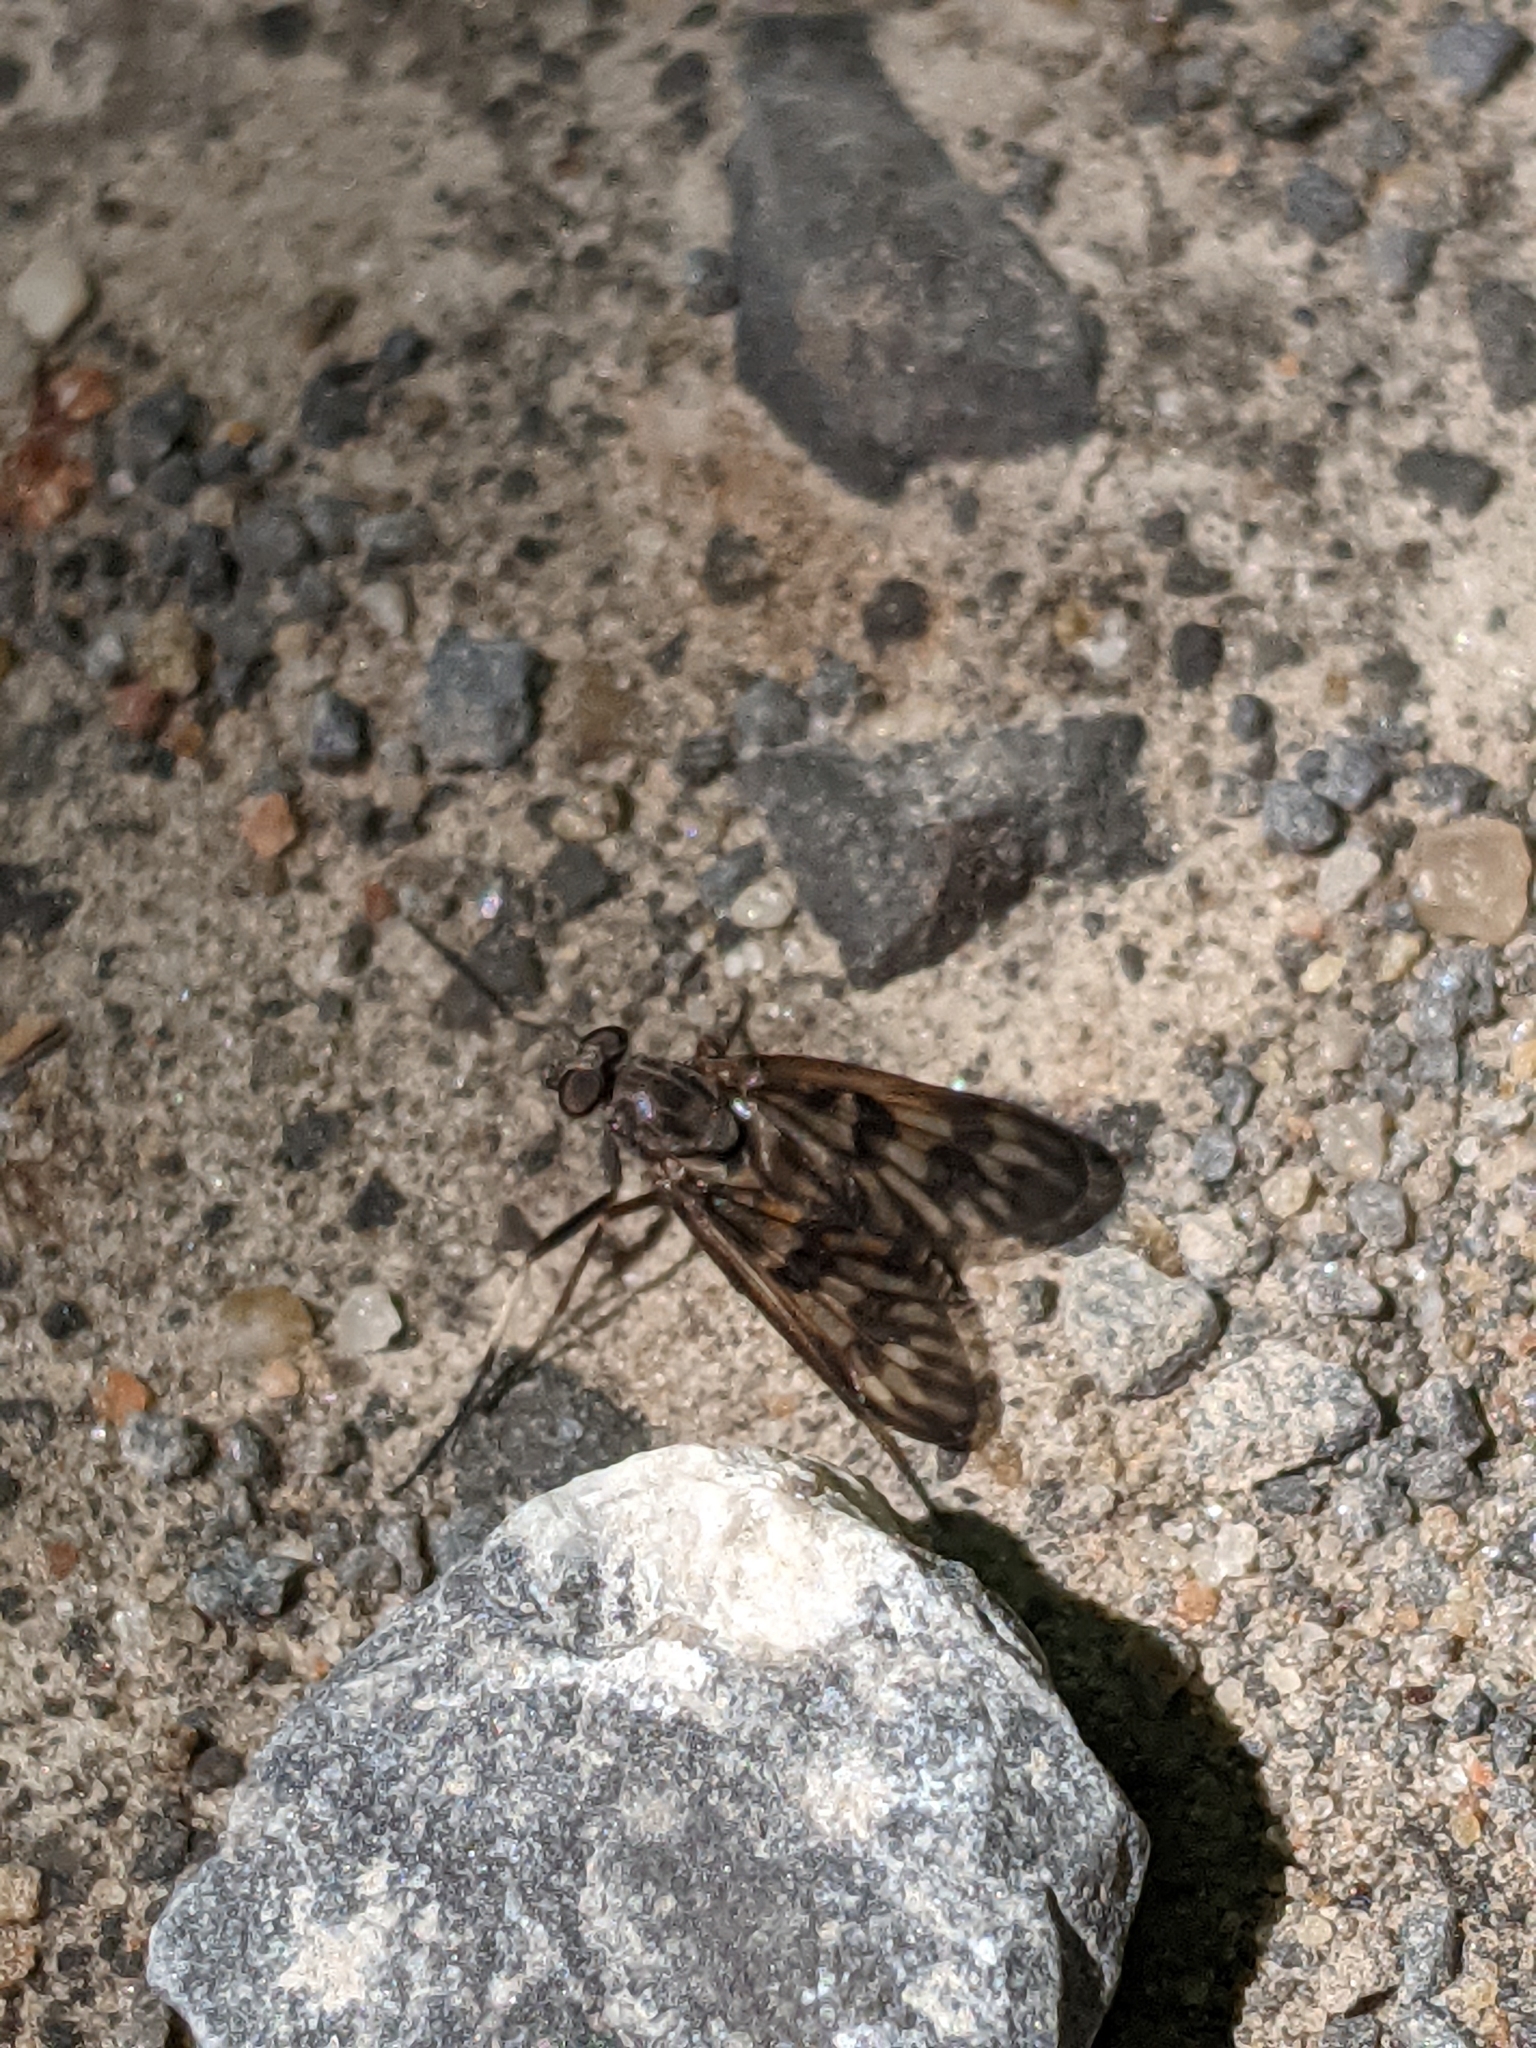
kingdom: Animalia
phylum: Arthropoda
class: Insecta
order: Diptera
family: Rhagionidae
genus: Rhagio
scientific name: Rhagio mystaceus
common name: Common snipe fly
